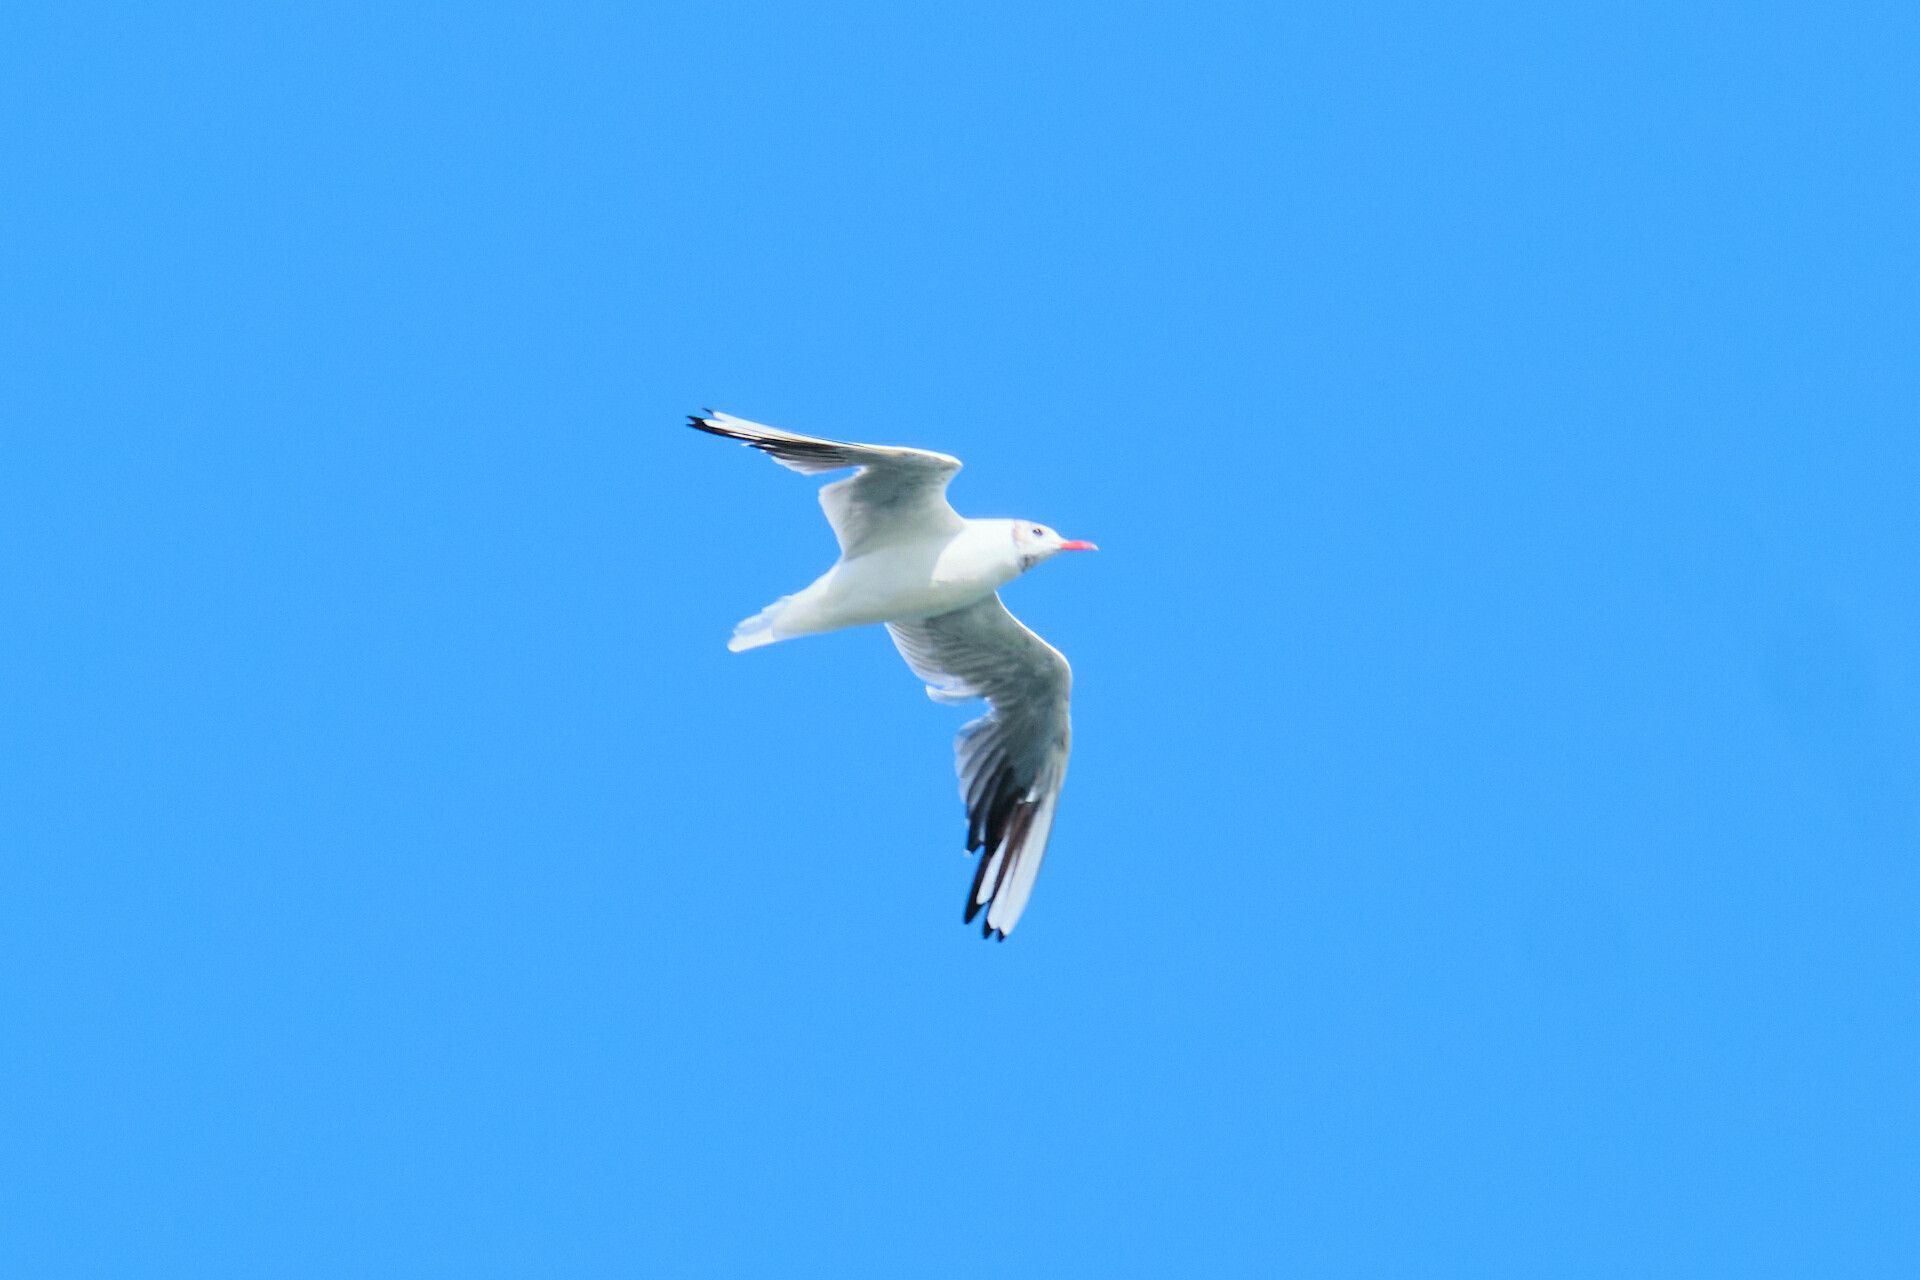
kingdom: Animalia
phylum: Chordata
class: Aves
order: Charadriiformes
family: Laridae
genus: Chroicocephalus
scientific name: Chroicocephalus ridibundus
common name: Black-headed gull
